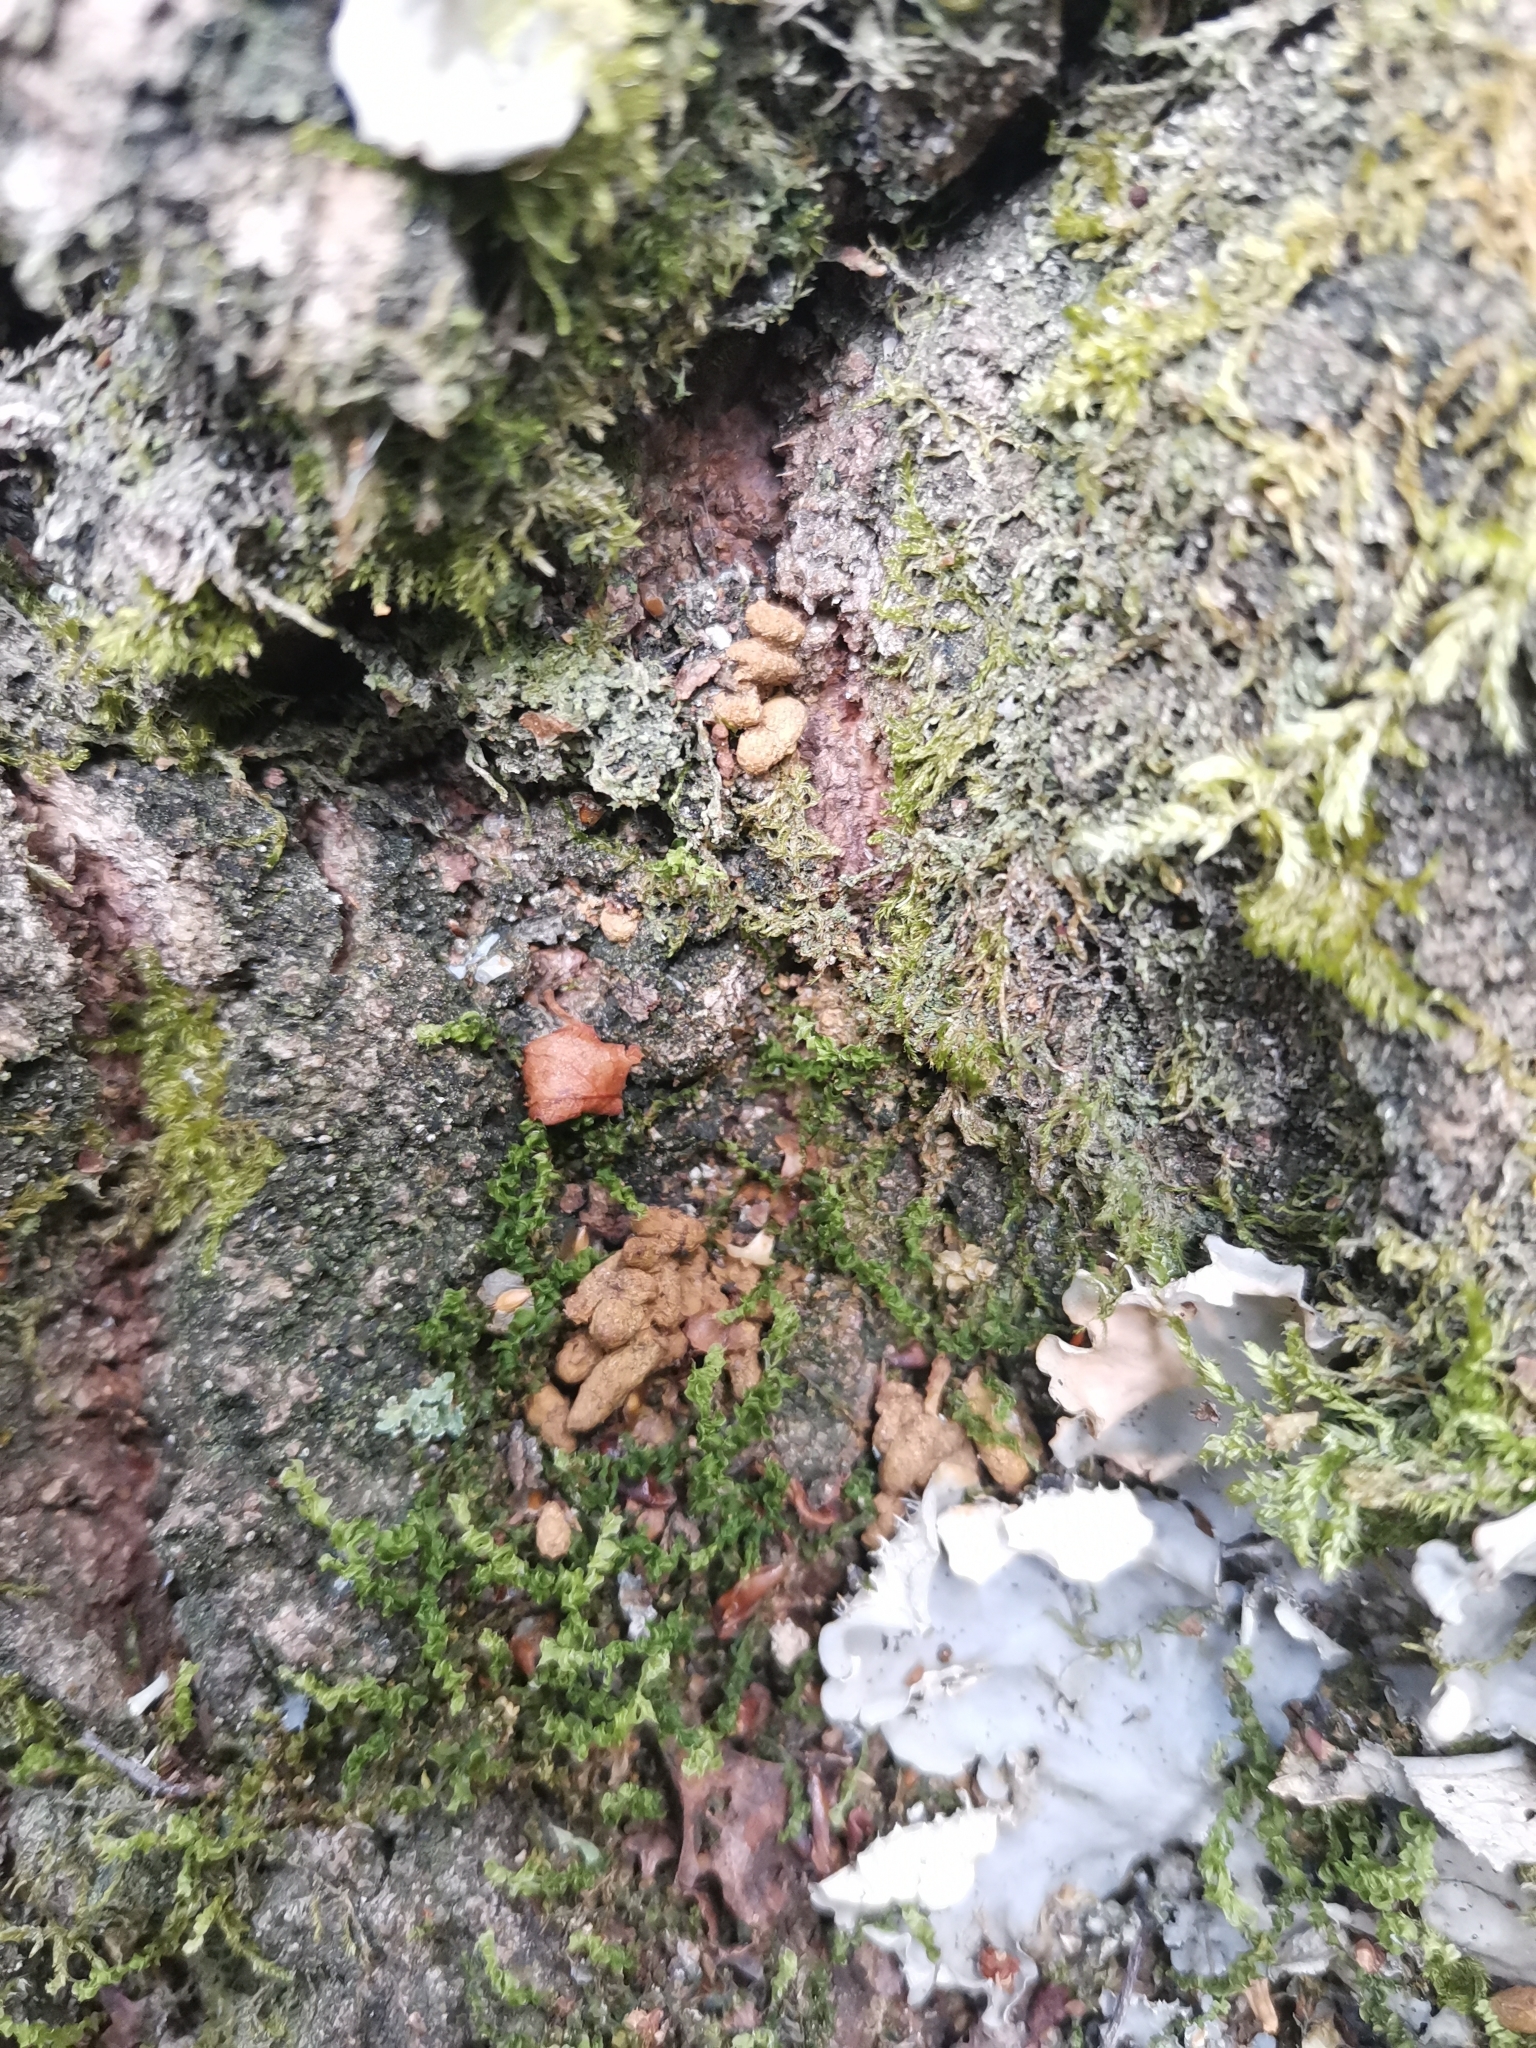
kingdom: Animalia
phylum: Chordata
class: Mammalia
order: Rodentia
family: Sciuridae
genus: Pteromys
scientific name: Pteromys volans
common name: Siberian flying squirrel
